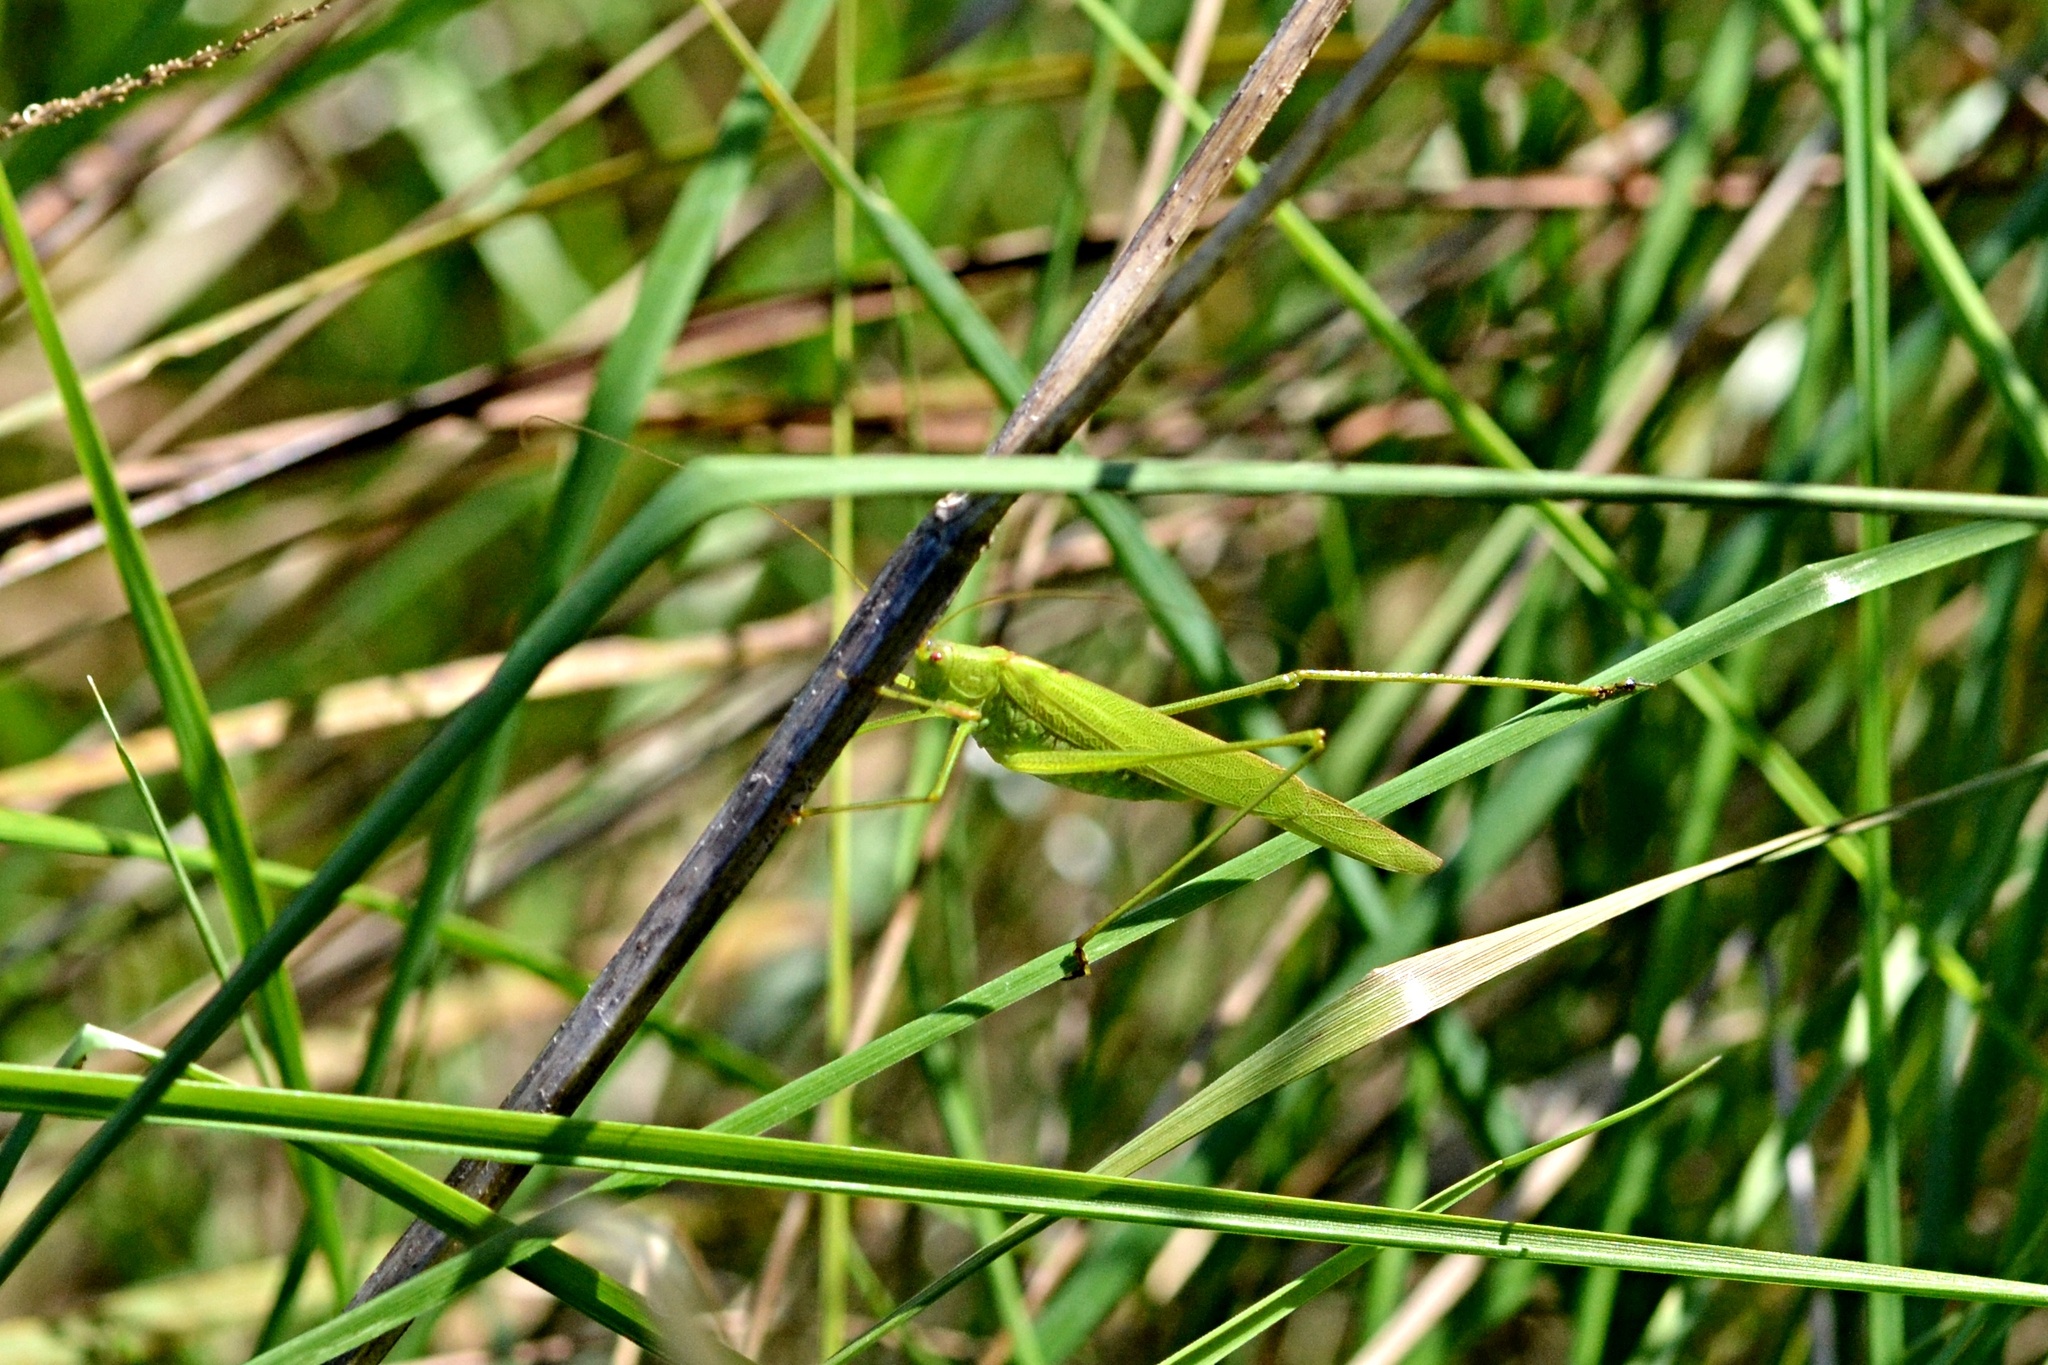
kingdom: Animalia
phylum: Arthropoda
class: Insecta
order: Orthoptera
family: Tettigoniidae
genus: Phaneroptera
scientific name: Phaneroptera falcata
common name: Sickle-bearing bush-cricket
